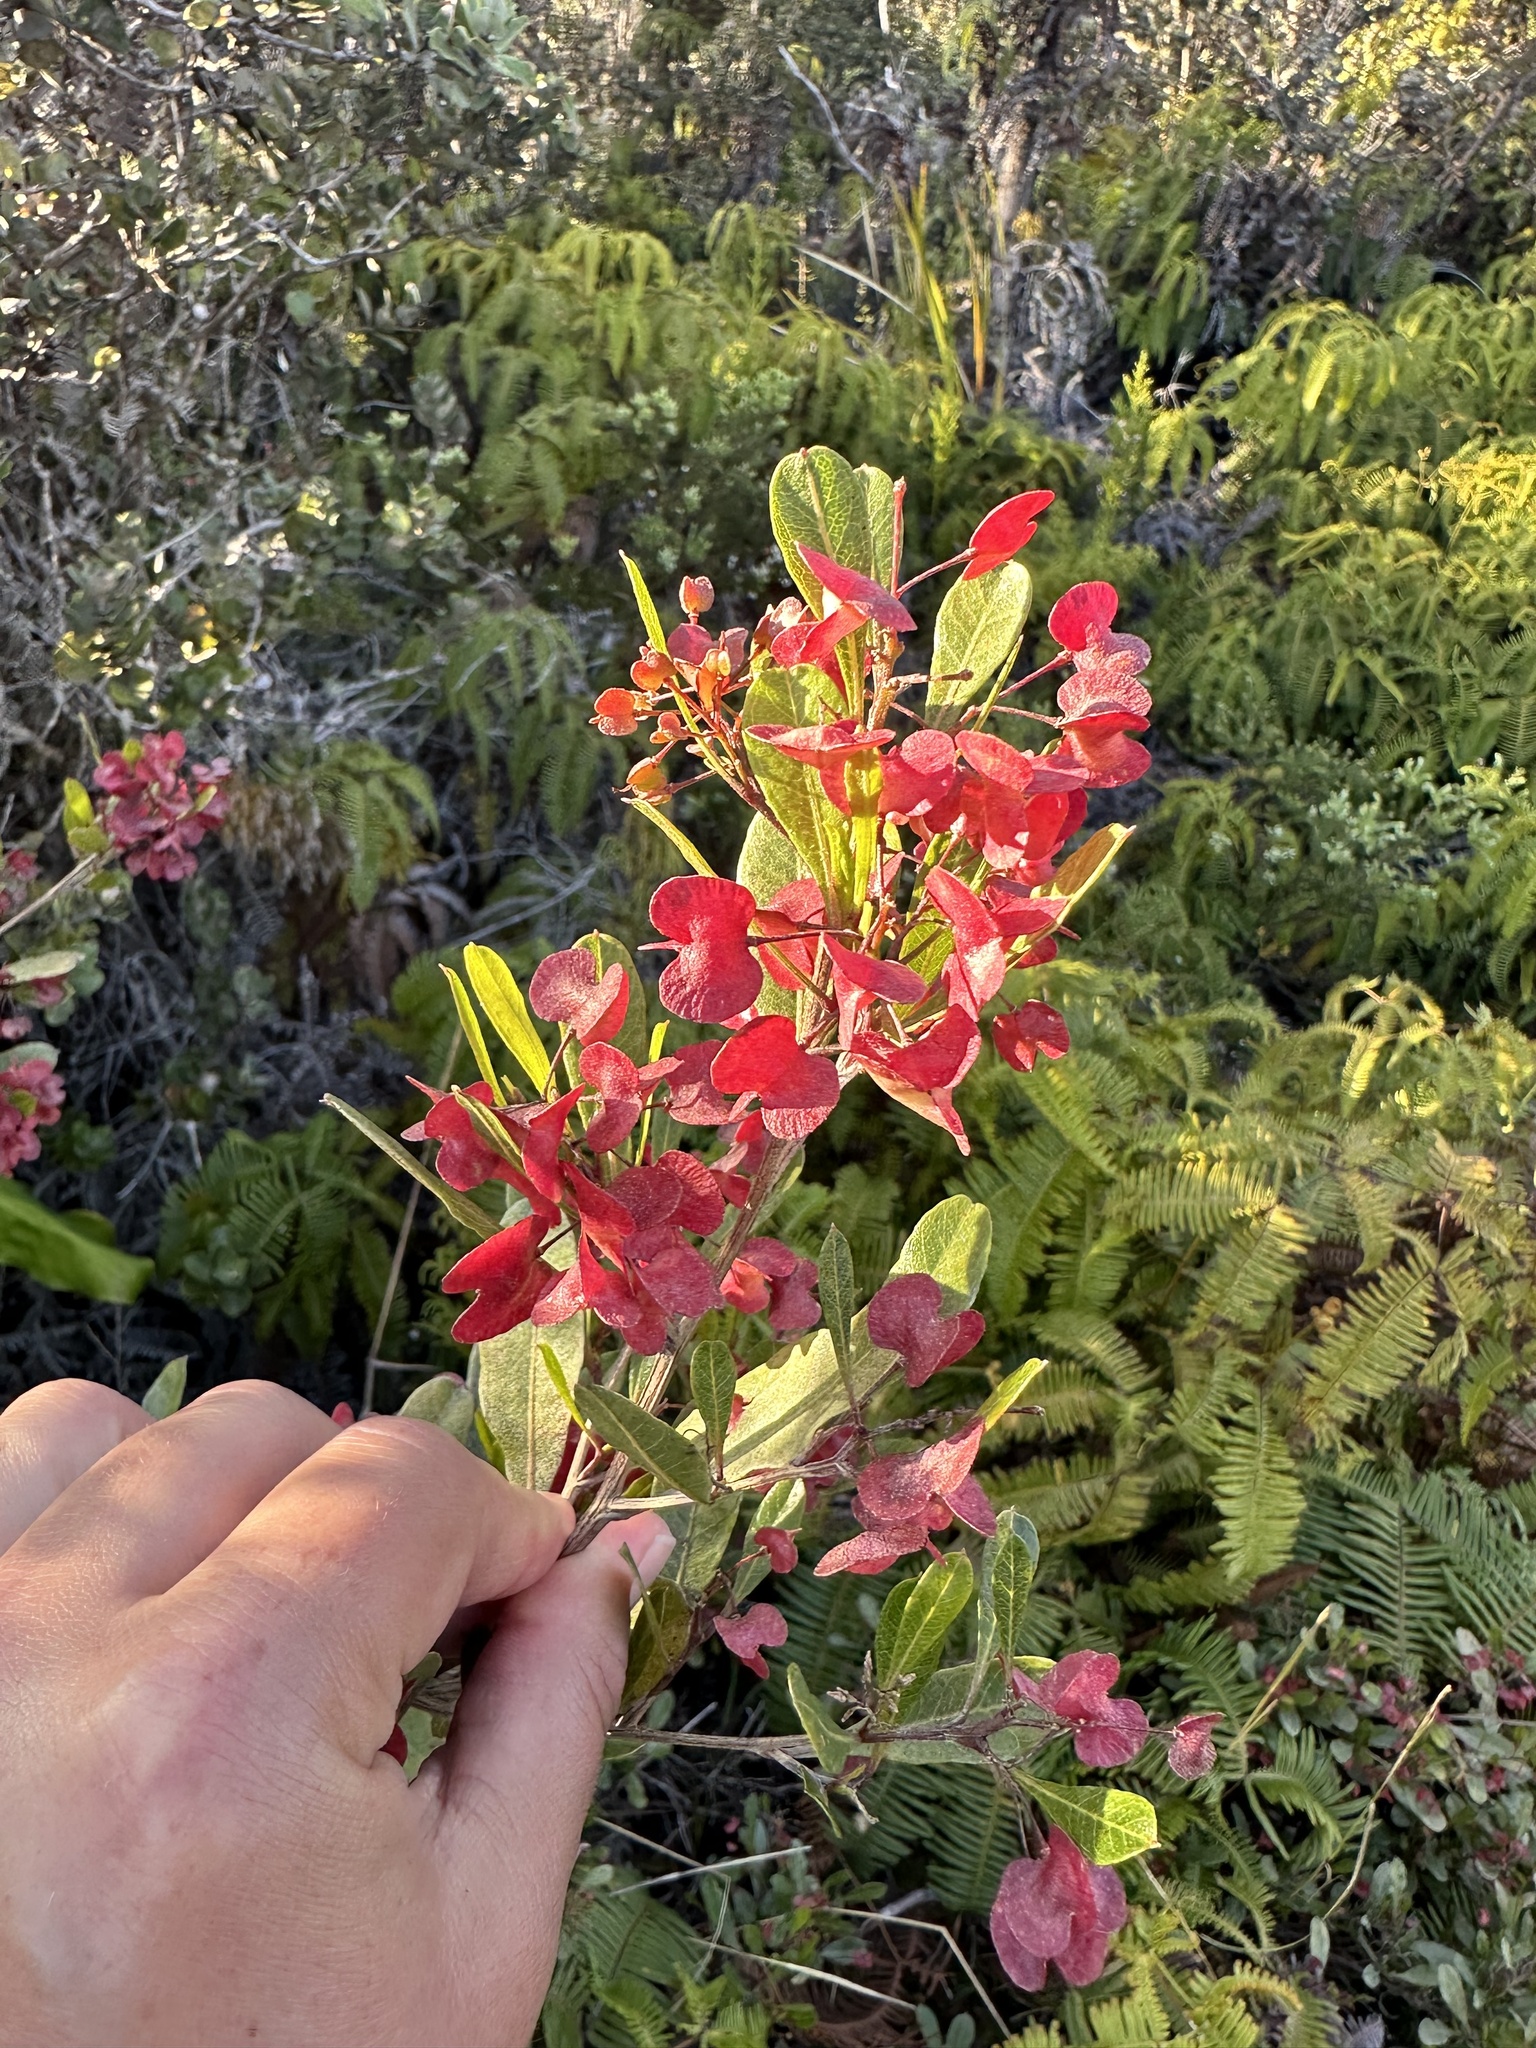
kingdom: Plantae
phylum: Tracheophyta
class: Magnoliopsida
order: Sapindales
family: Sapindaceae
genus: Dodonaea
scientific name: Dodonaea viscosa
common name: Hopbush
